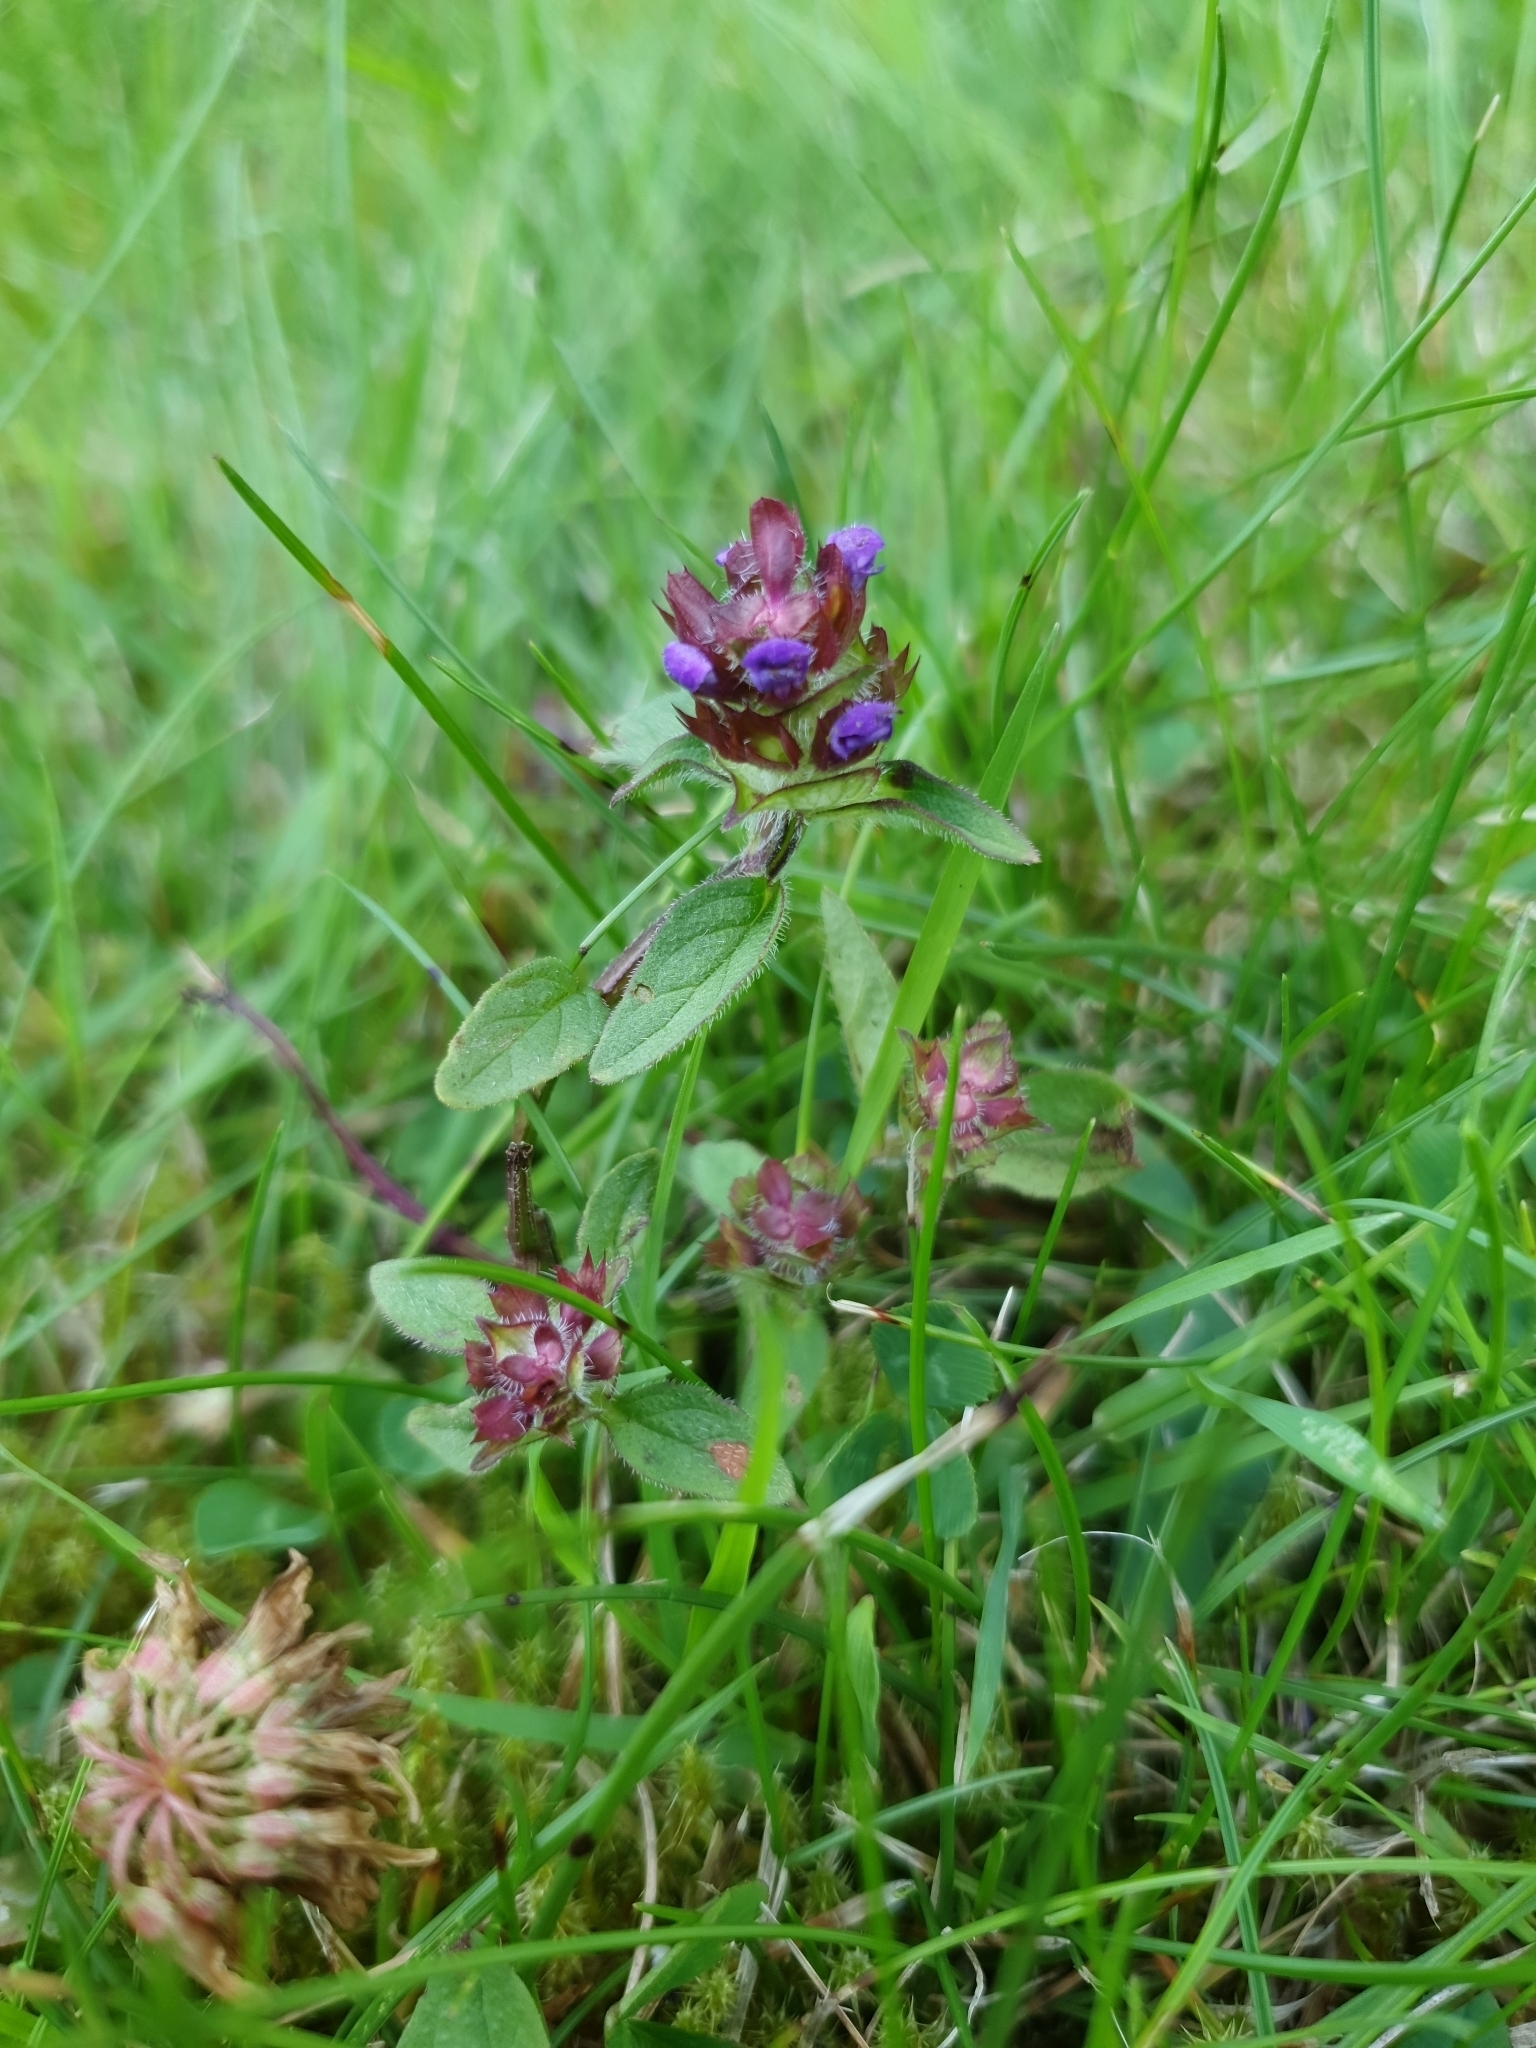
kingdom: Plantae
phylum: Tracheophyta
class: Magnoliopsida
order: Lamiales
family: Lamiaceae
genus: Prunella
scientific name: Prunella vulgaris
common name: Heal-all
